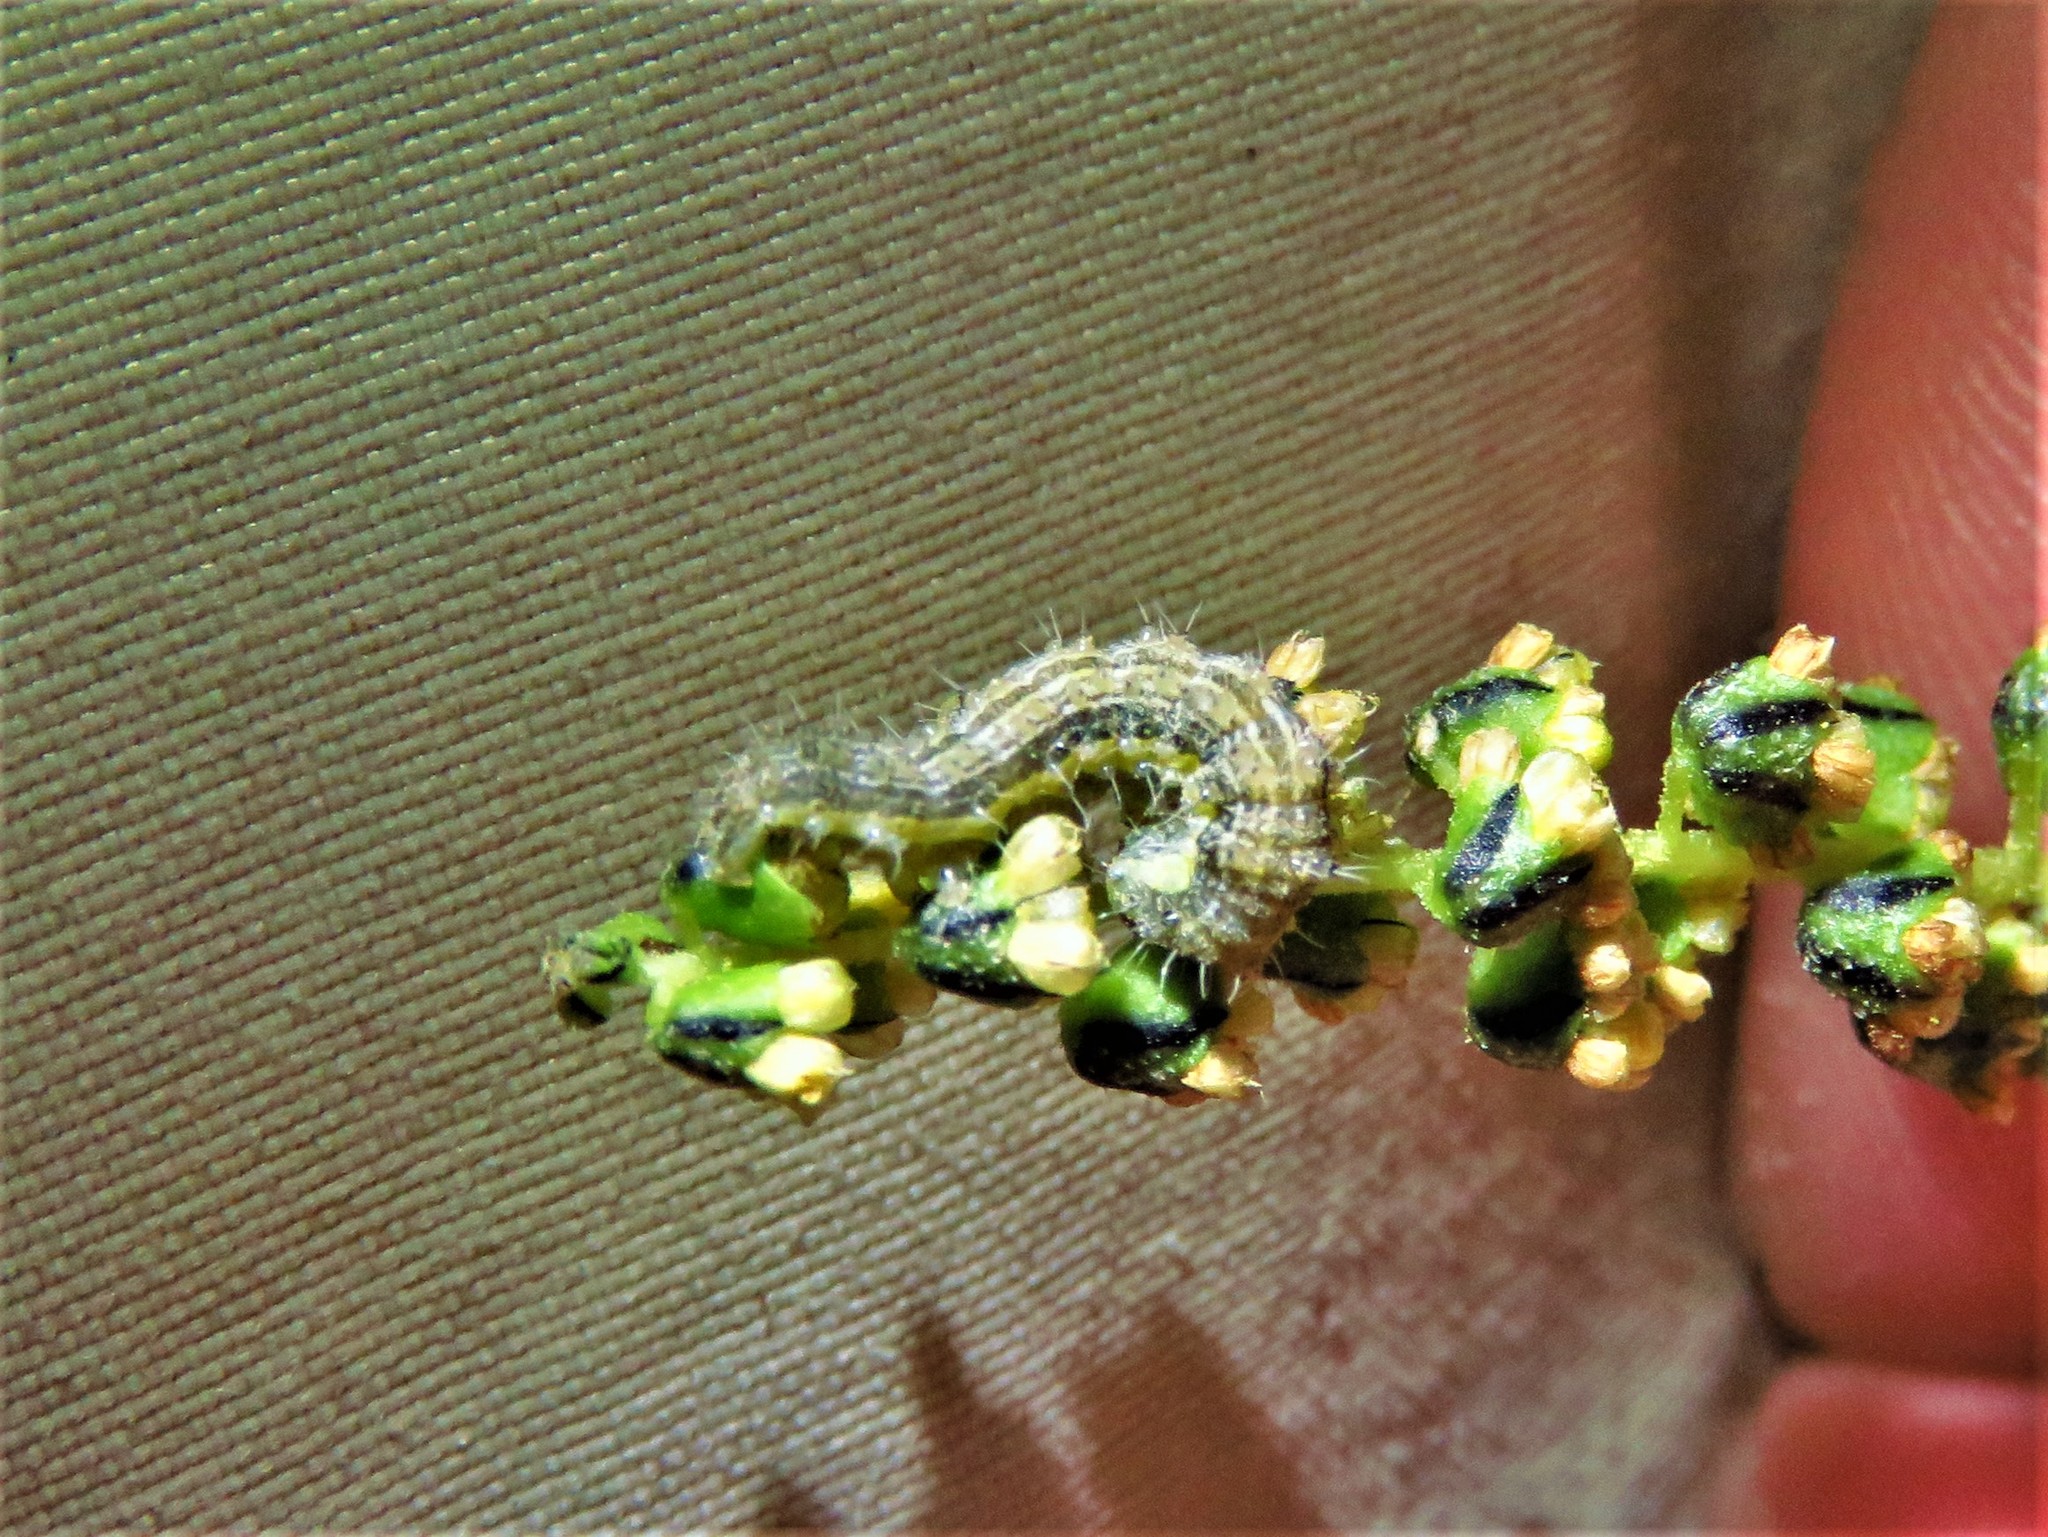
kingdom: Animalia
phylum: Arthropoda
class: Insecta
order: Lepidoptera
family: Noctuidae
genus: Schinia
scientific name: Schinia rivulosa
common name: Scarce meal-moth
